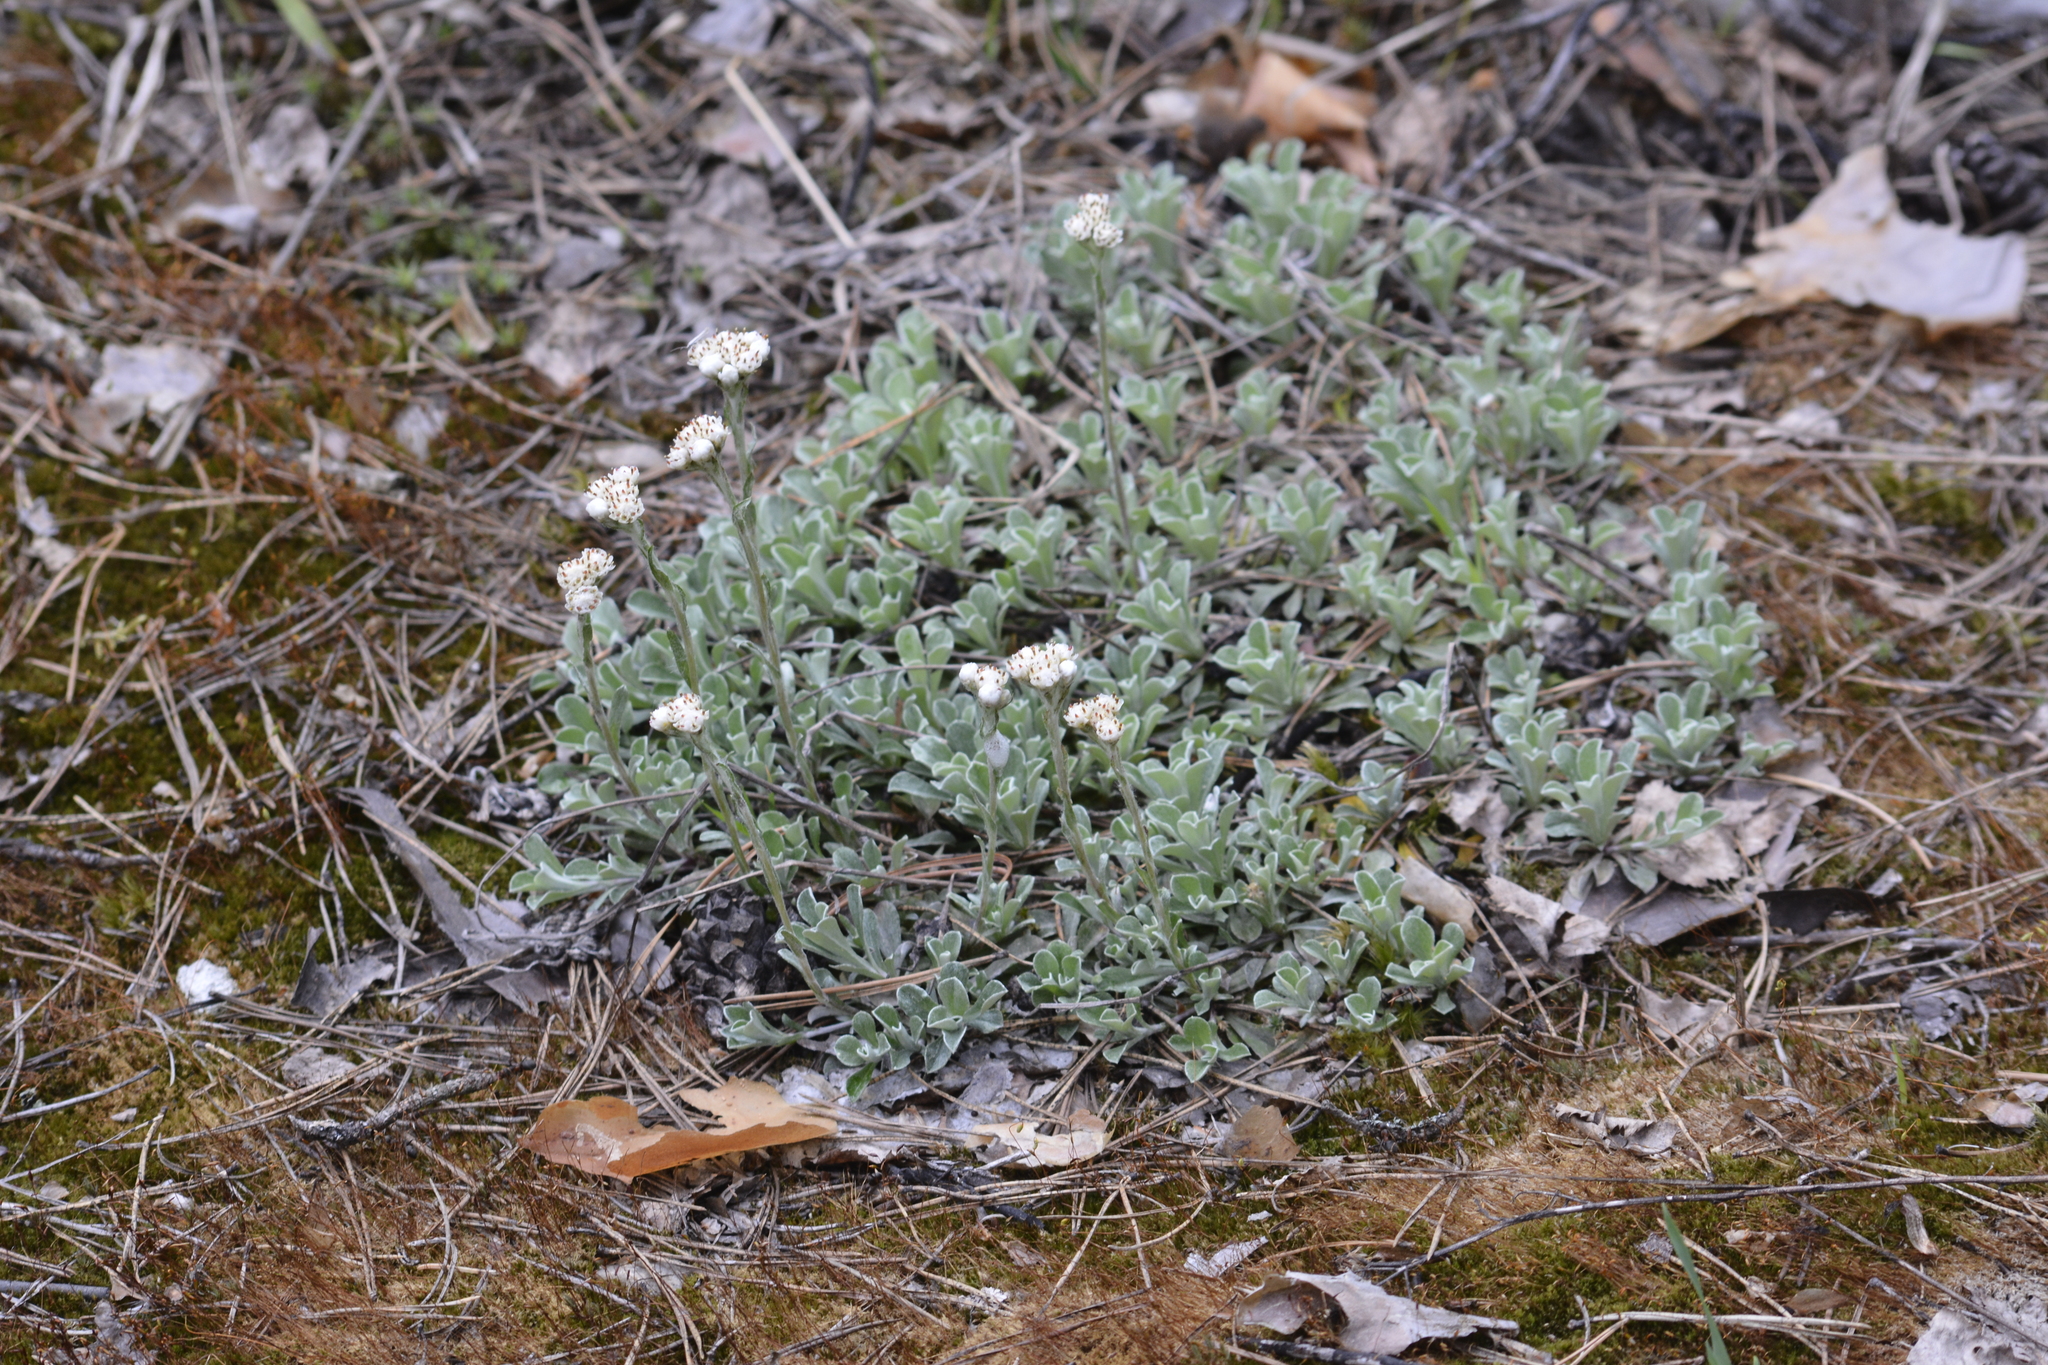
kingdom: Plantae
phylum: Tracheophyta
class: Magnoliopsida
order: Asterales
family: Asteraceae
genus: Antennaria
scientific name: Antennaria dioica
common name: Mountain everlasting
